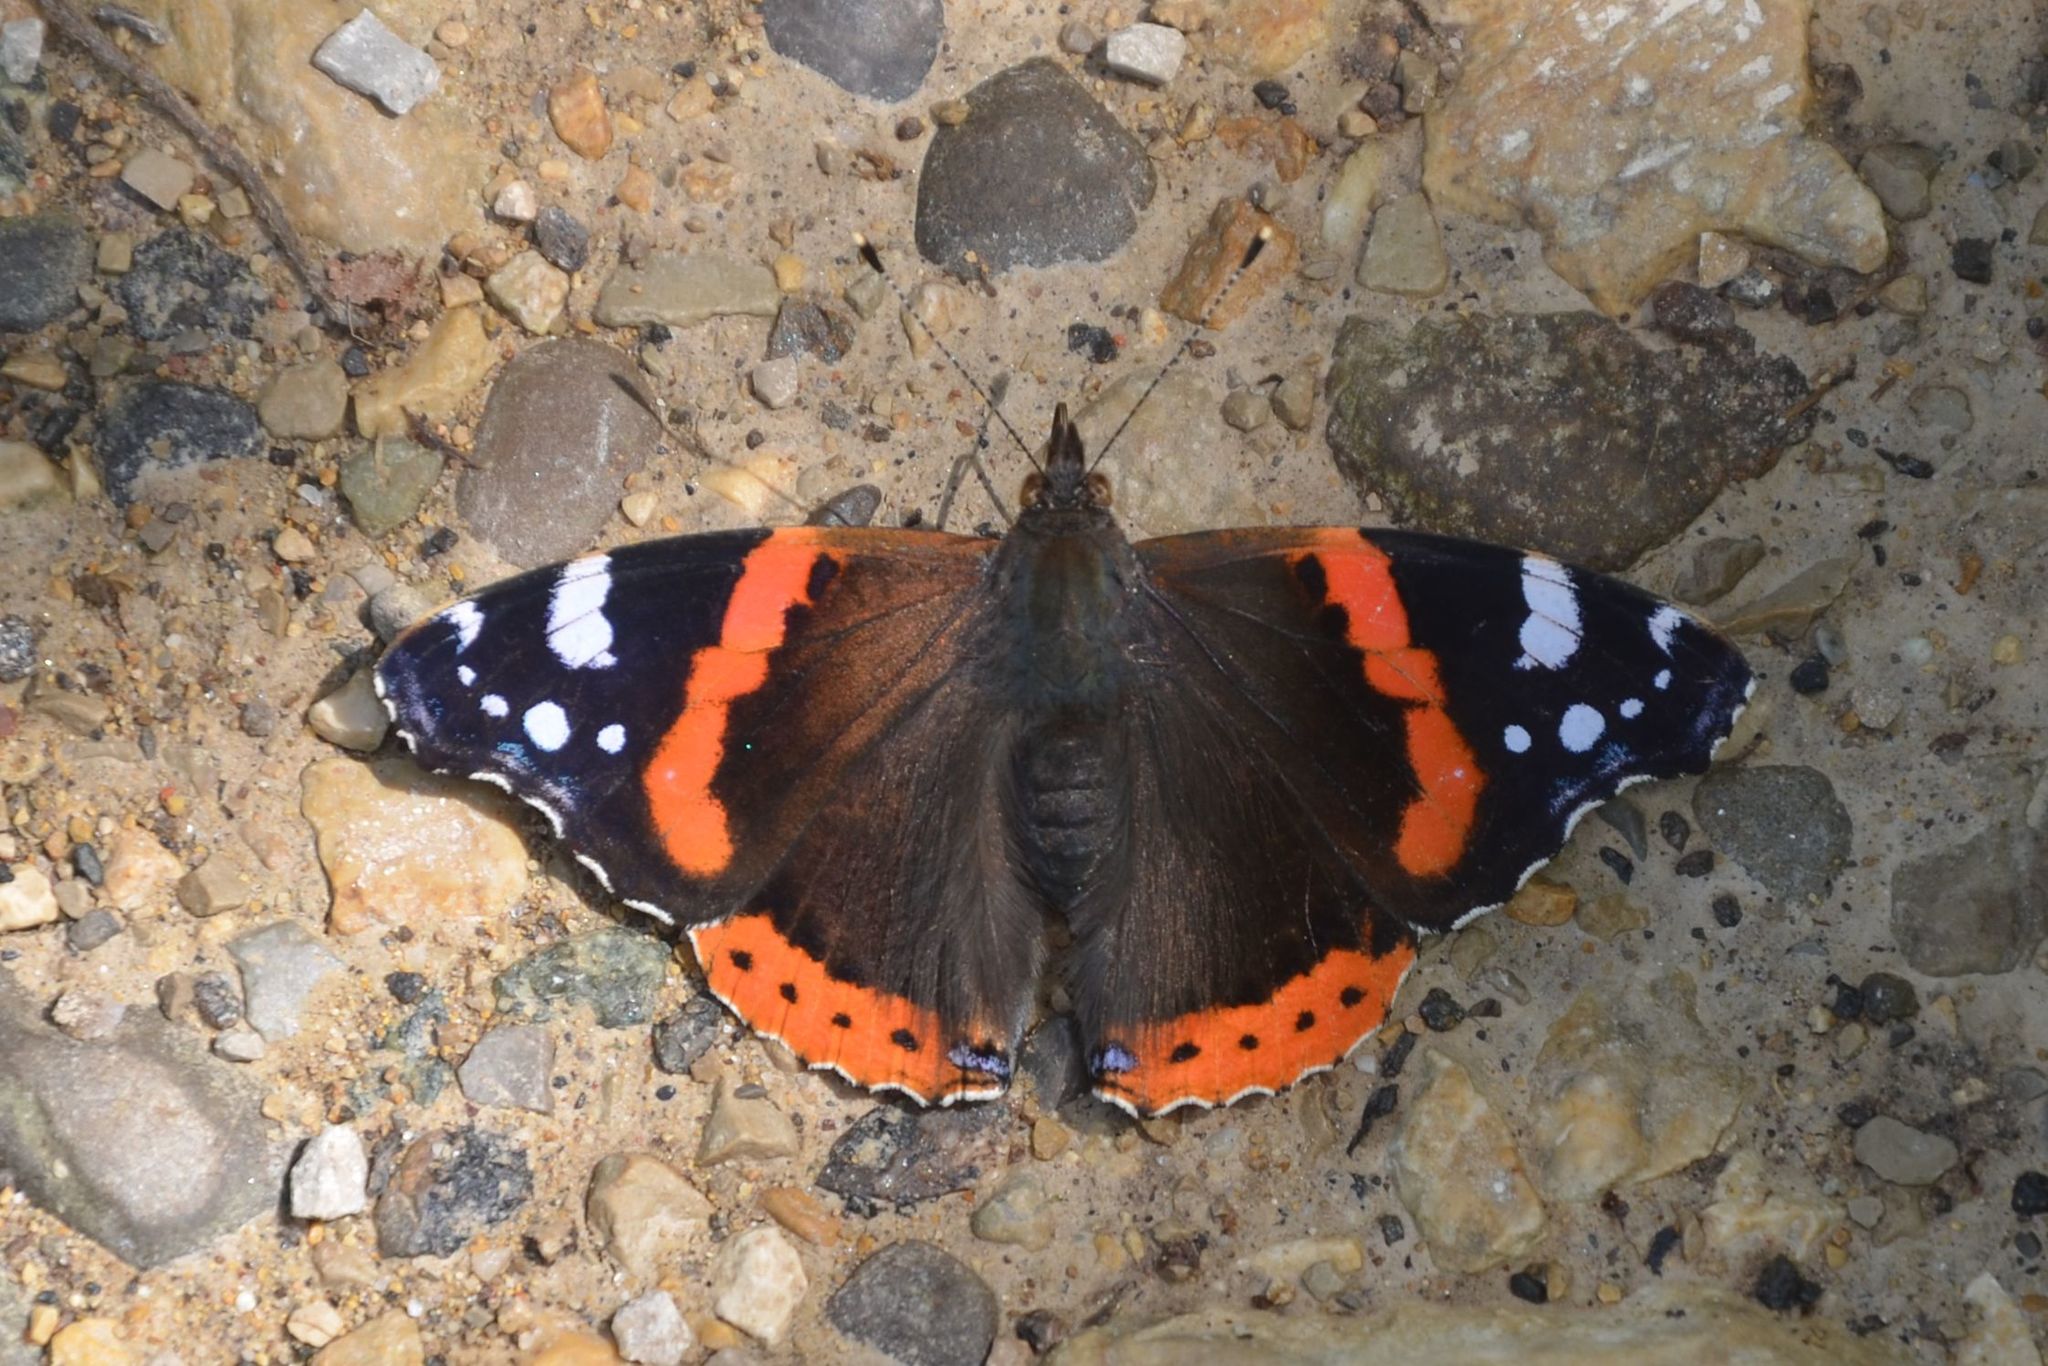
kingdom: Animalia
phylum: Arthropoda
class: Insecta
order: Lepidoptera
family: Nymphalidae
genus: Vanessa
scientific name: Vanessa atalanta
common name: Red admiral
